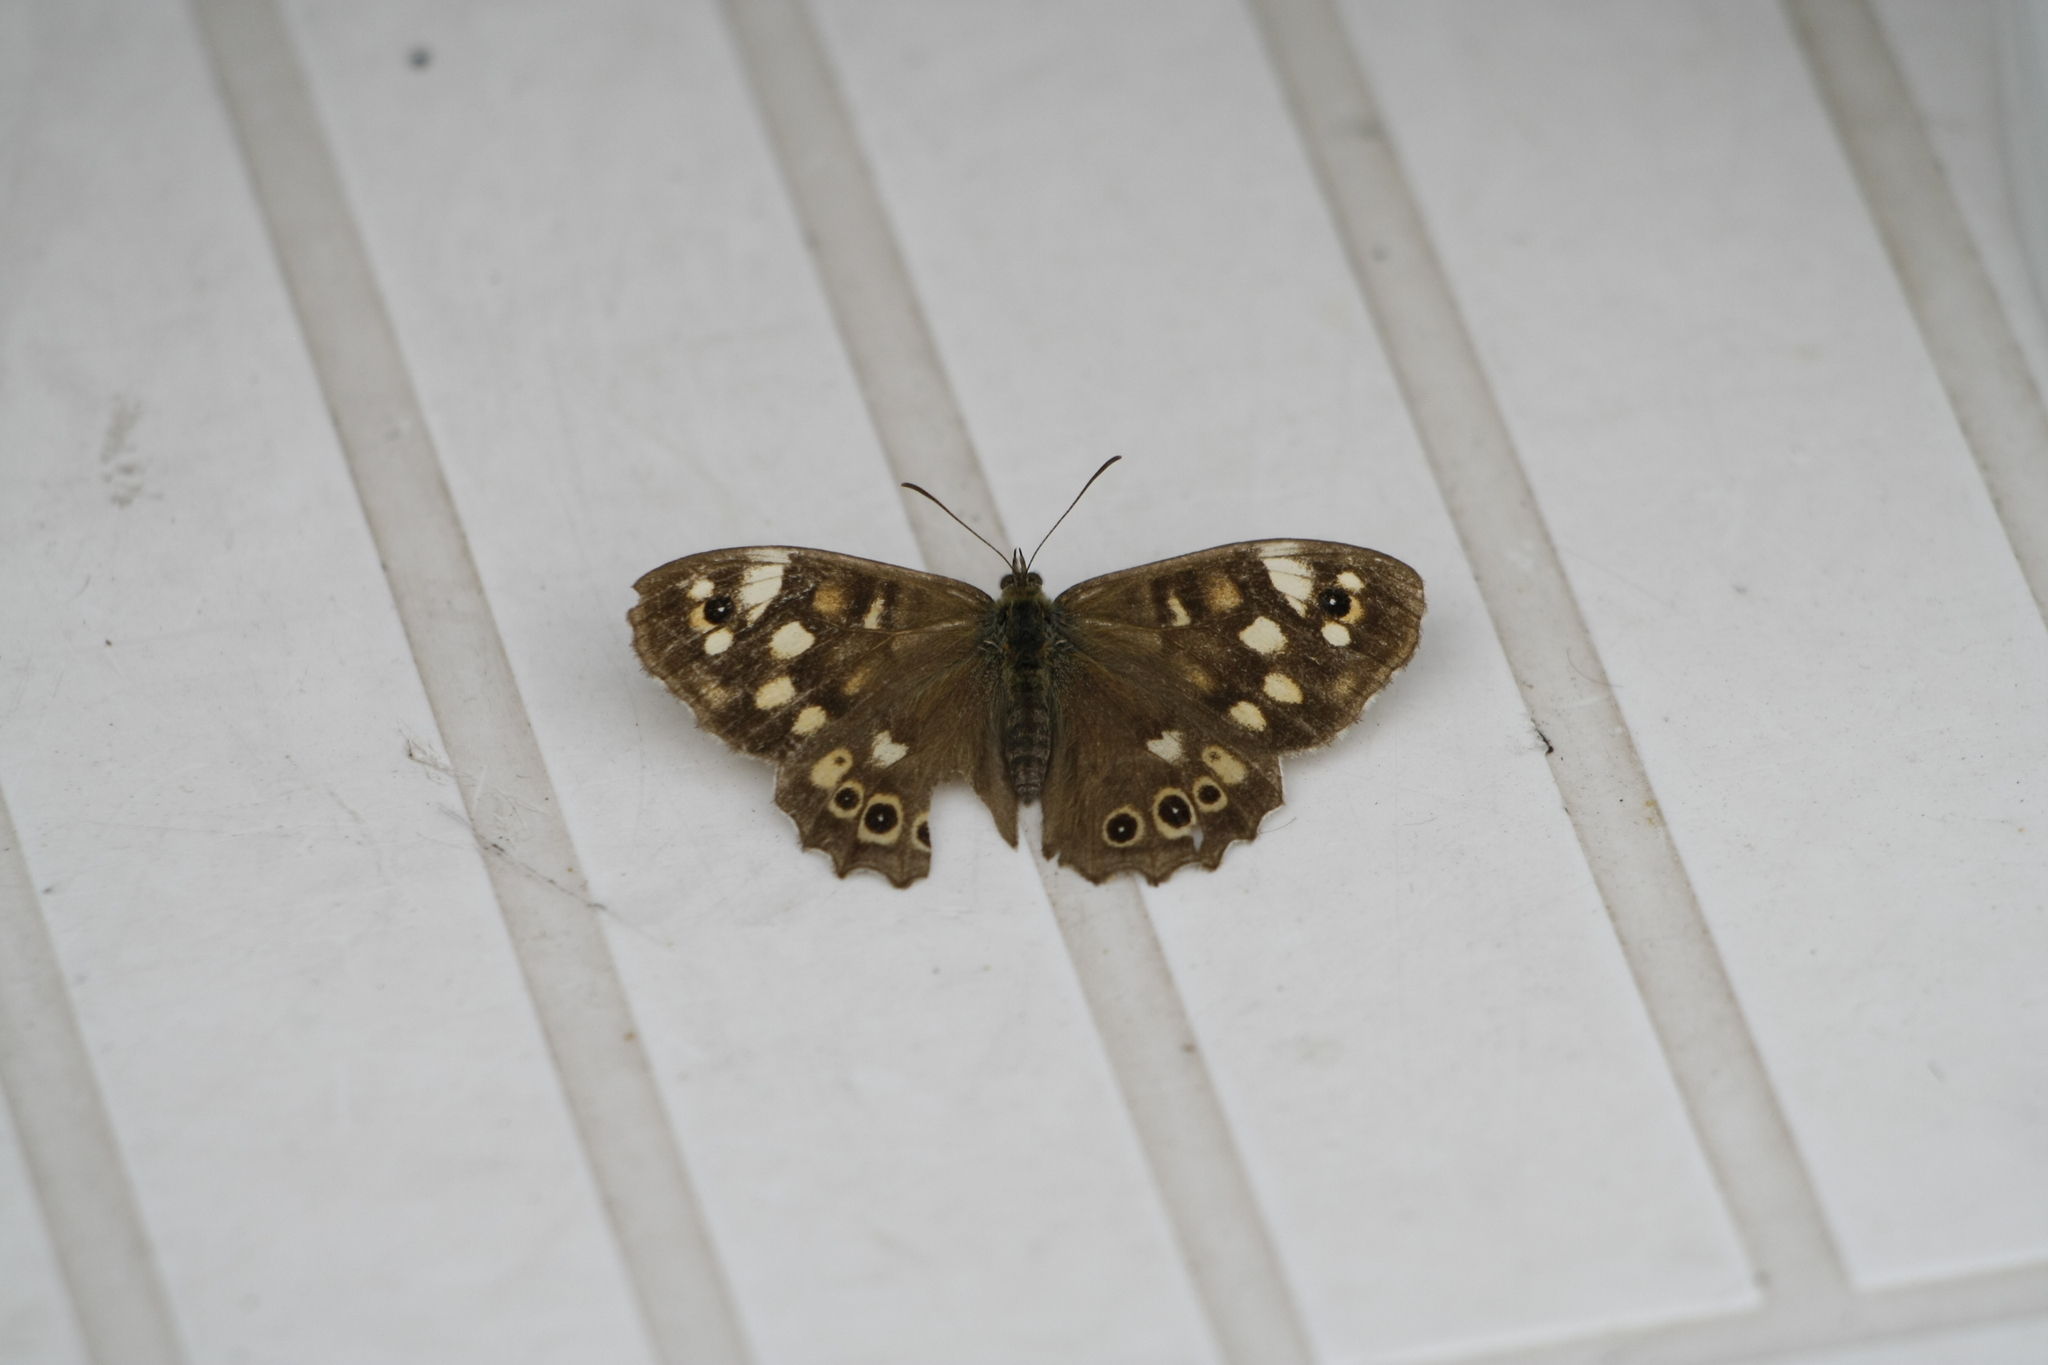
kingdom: Animalia
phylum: Arthropoda
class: Insecta
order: Lepidoptera
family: Nymphalidae
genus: Pararge
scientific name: Pararge aegeria
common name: Speckled wood
